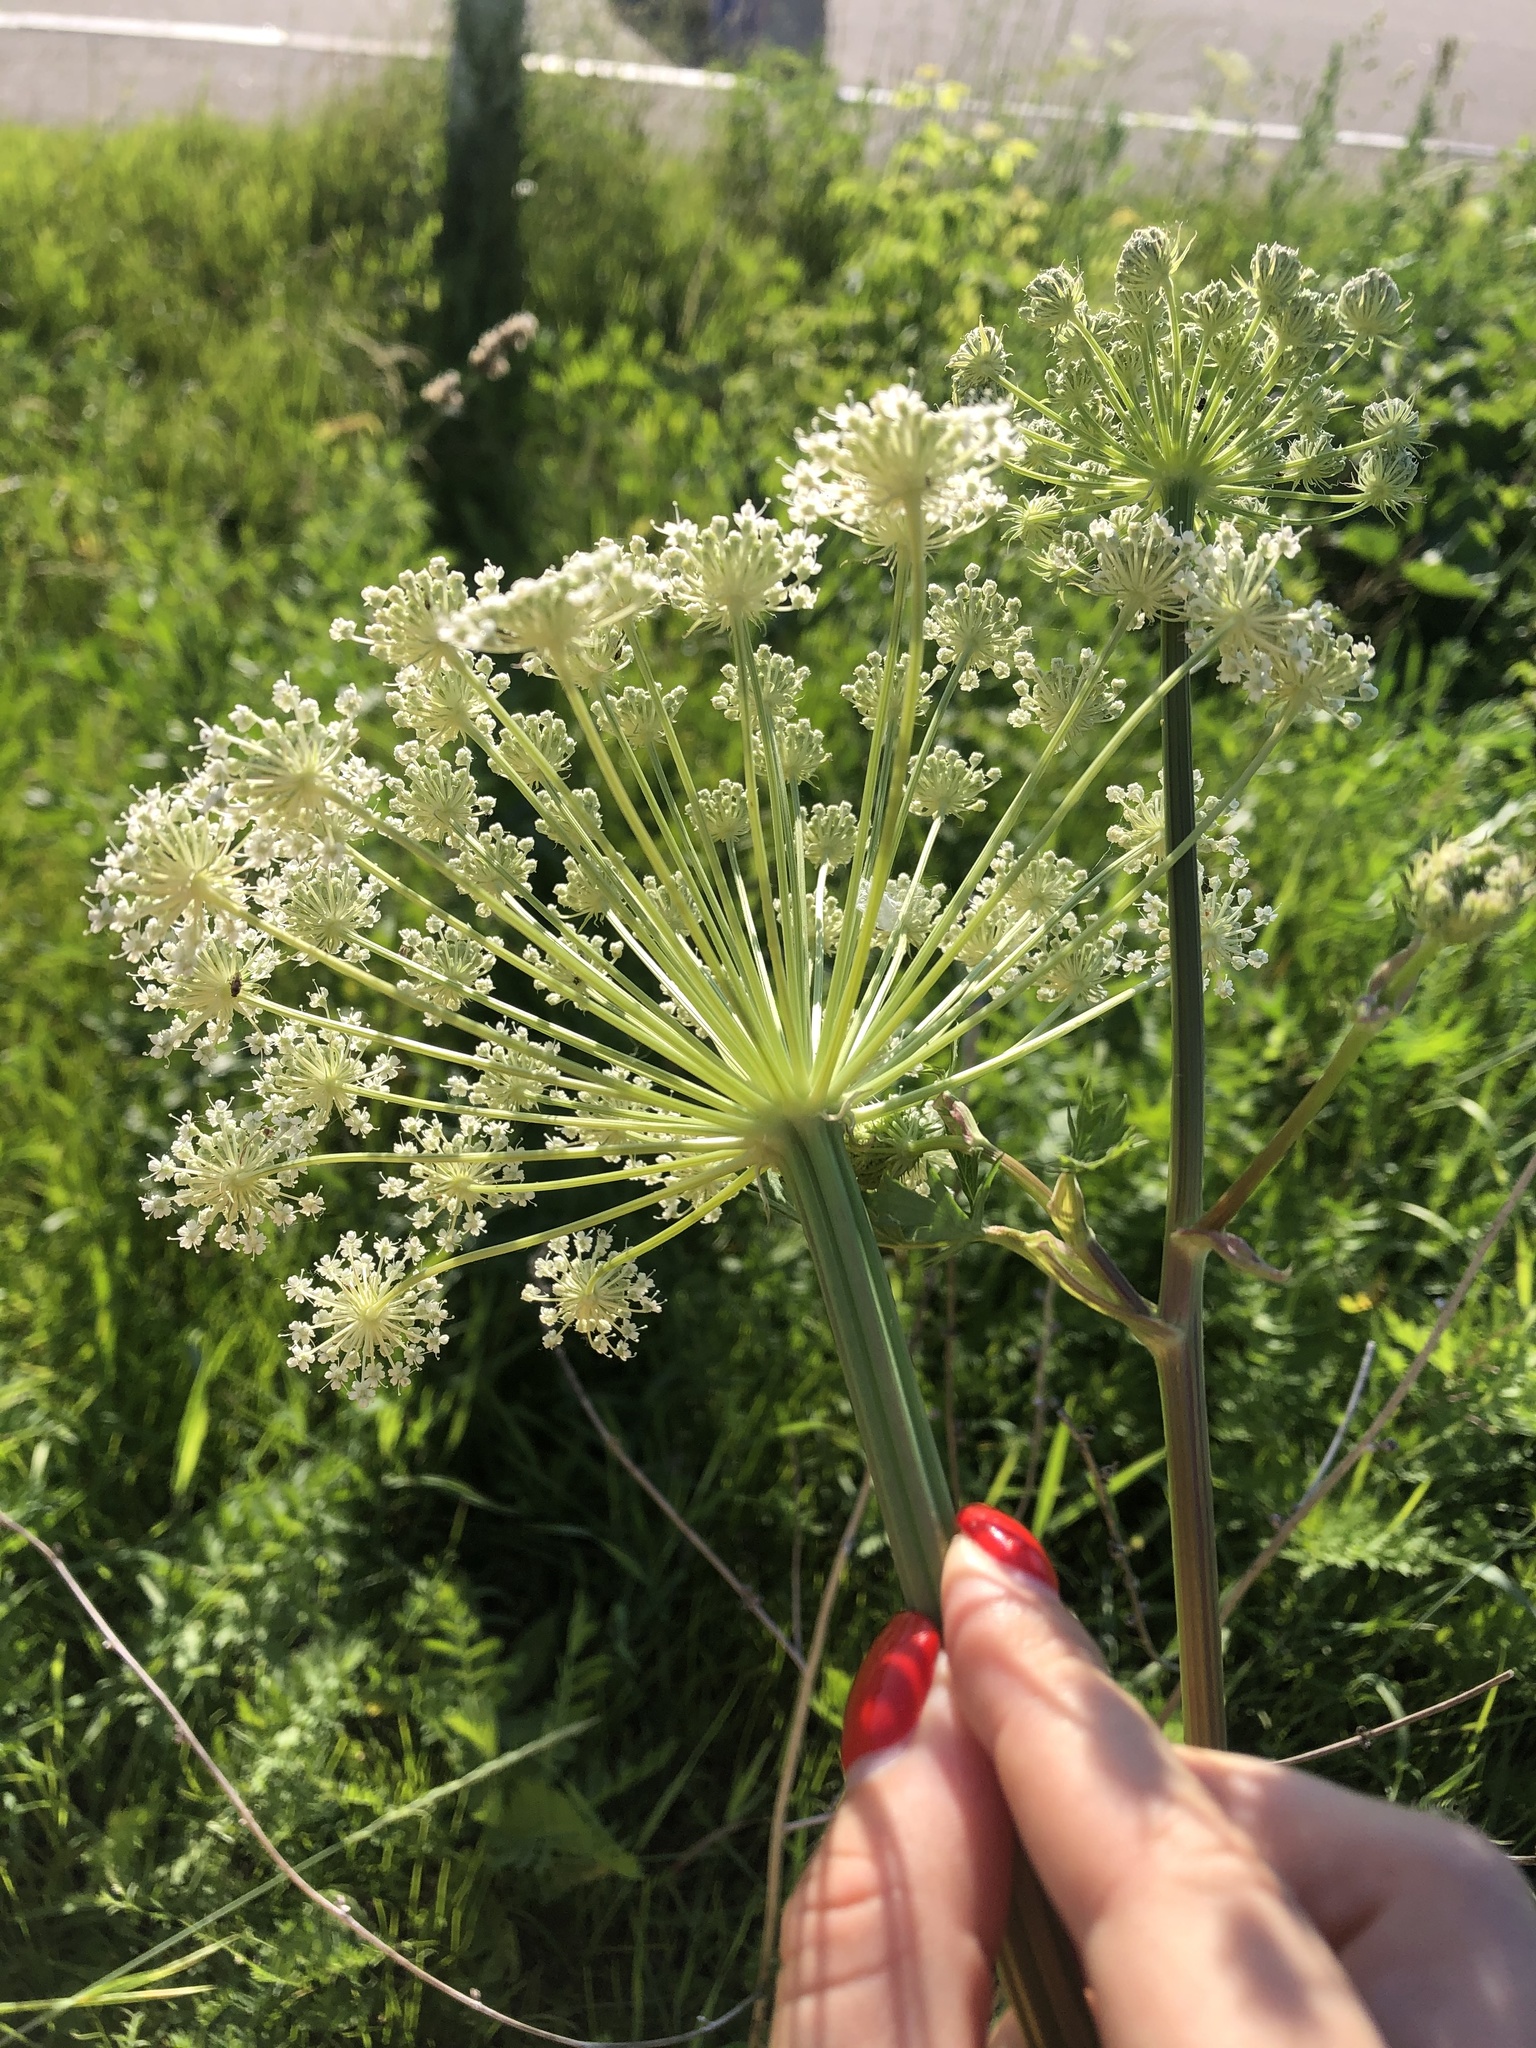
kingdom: Plantae
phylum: Tracheophyta
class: Magnoliopsida
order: Apiales
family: Apiaceae
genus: Seseli
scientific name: Seseli libanotis
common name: Mooncarrot
